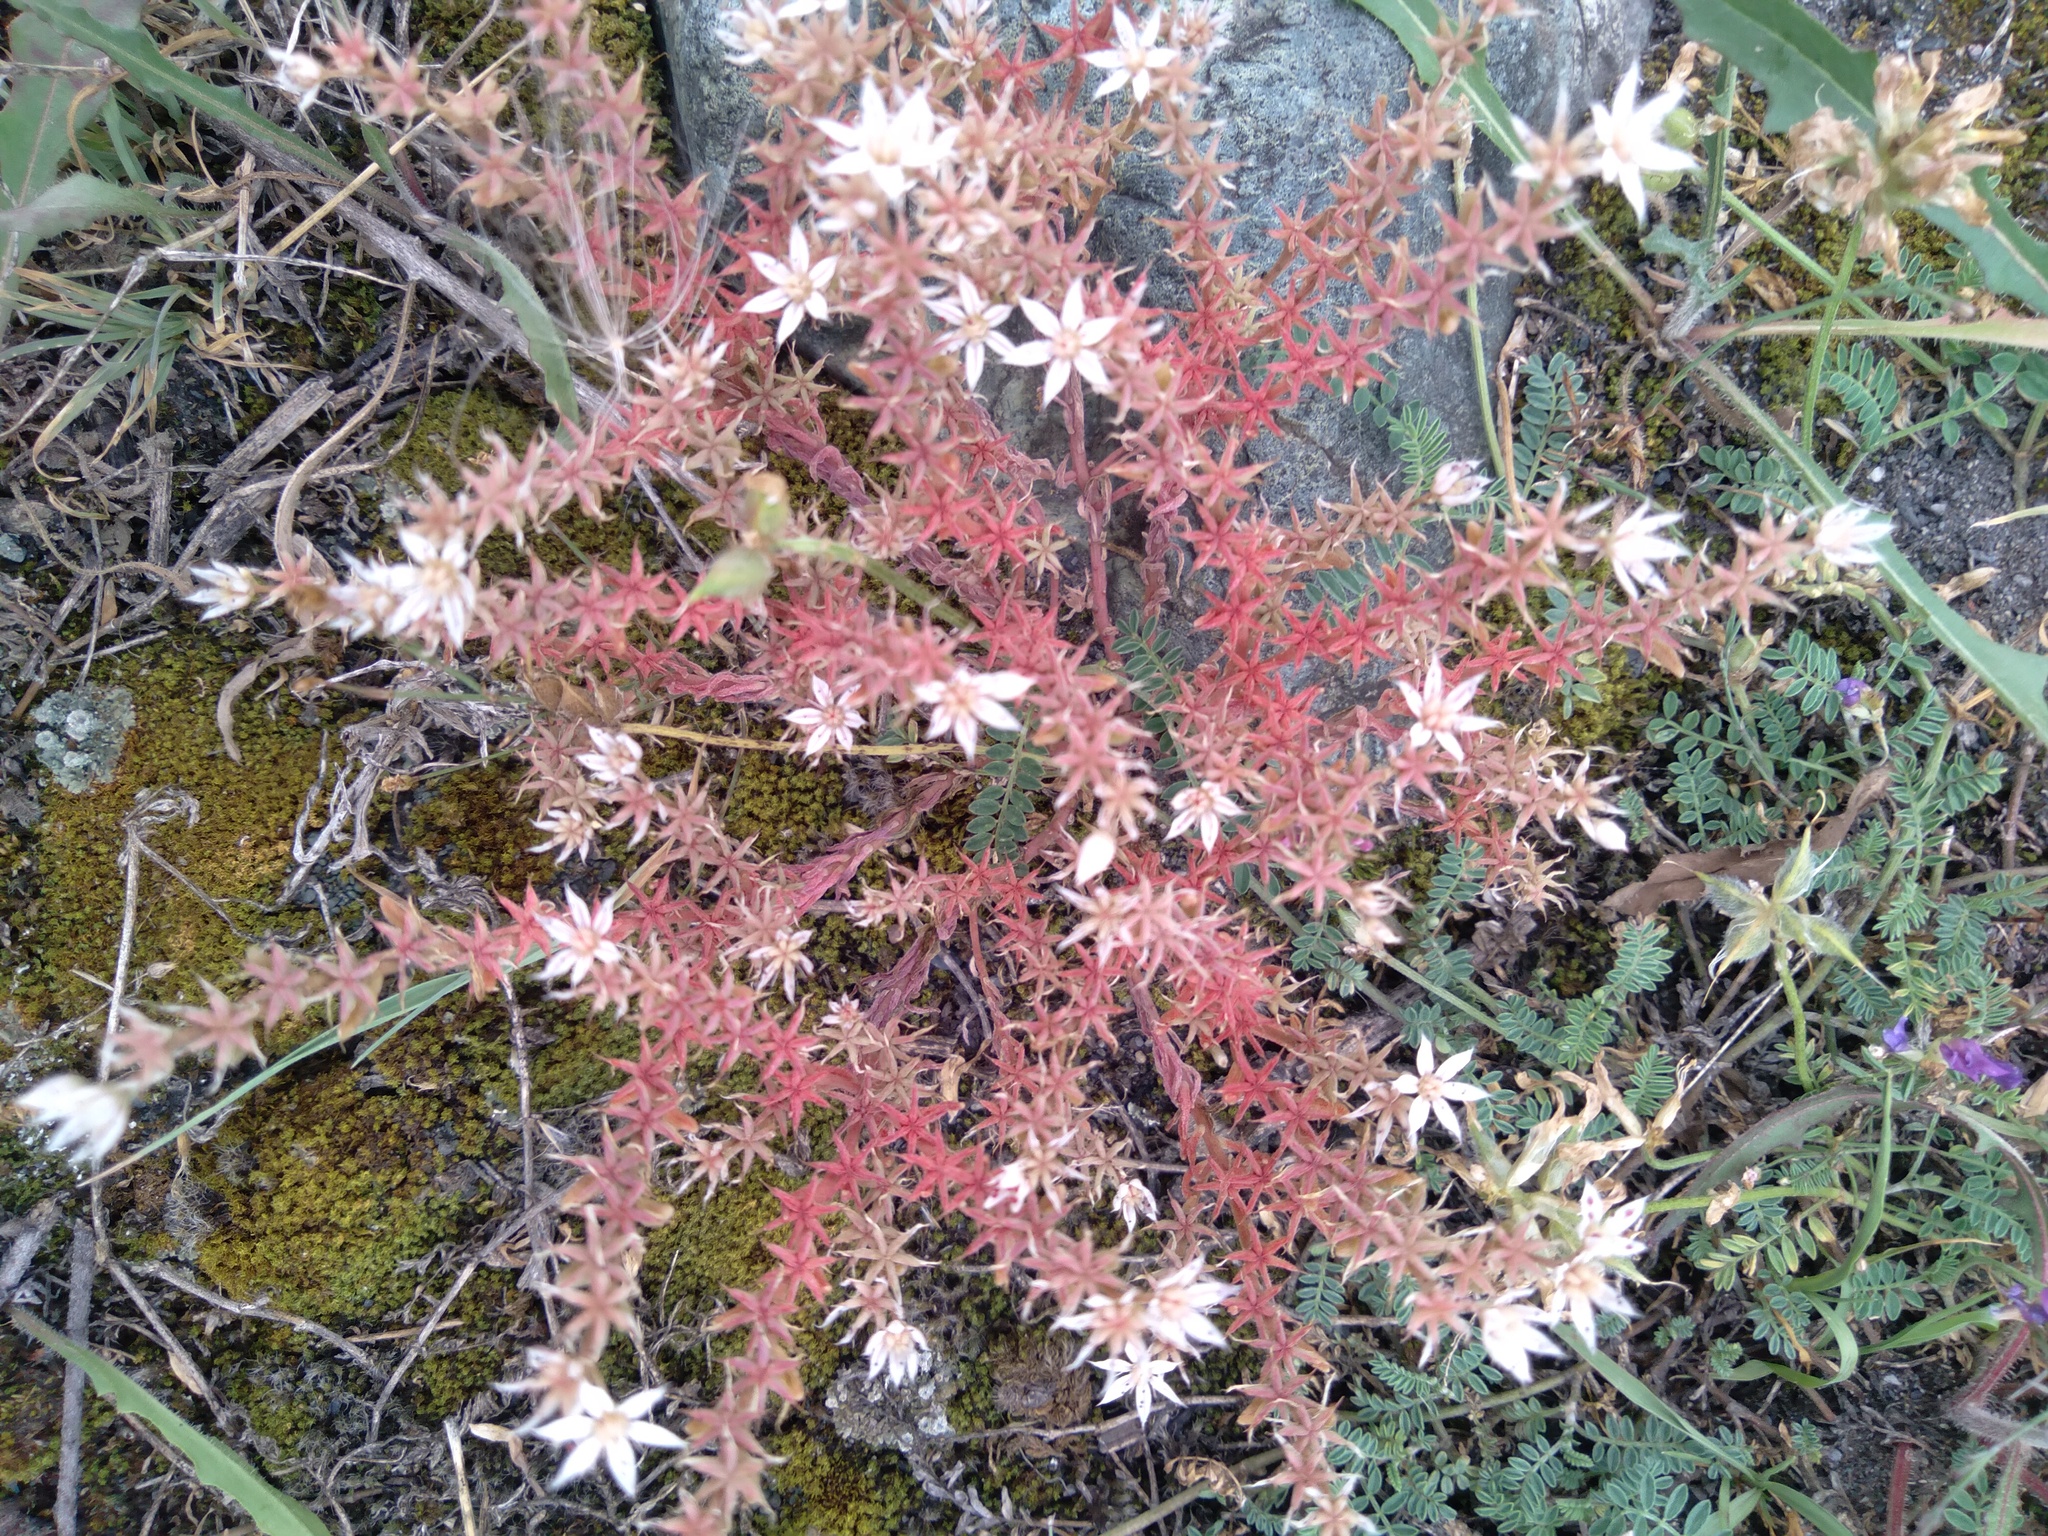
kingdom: Plantae
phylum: Tracheophyta
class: Magnoliopsida
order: Saxifragales
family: Crassulaceae
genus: Sedum
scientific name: Sedum hispanicum
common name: Spanish stonecrop
